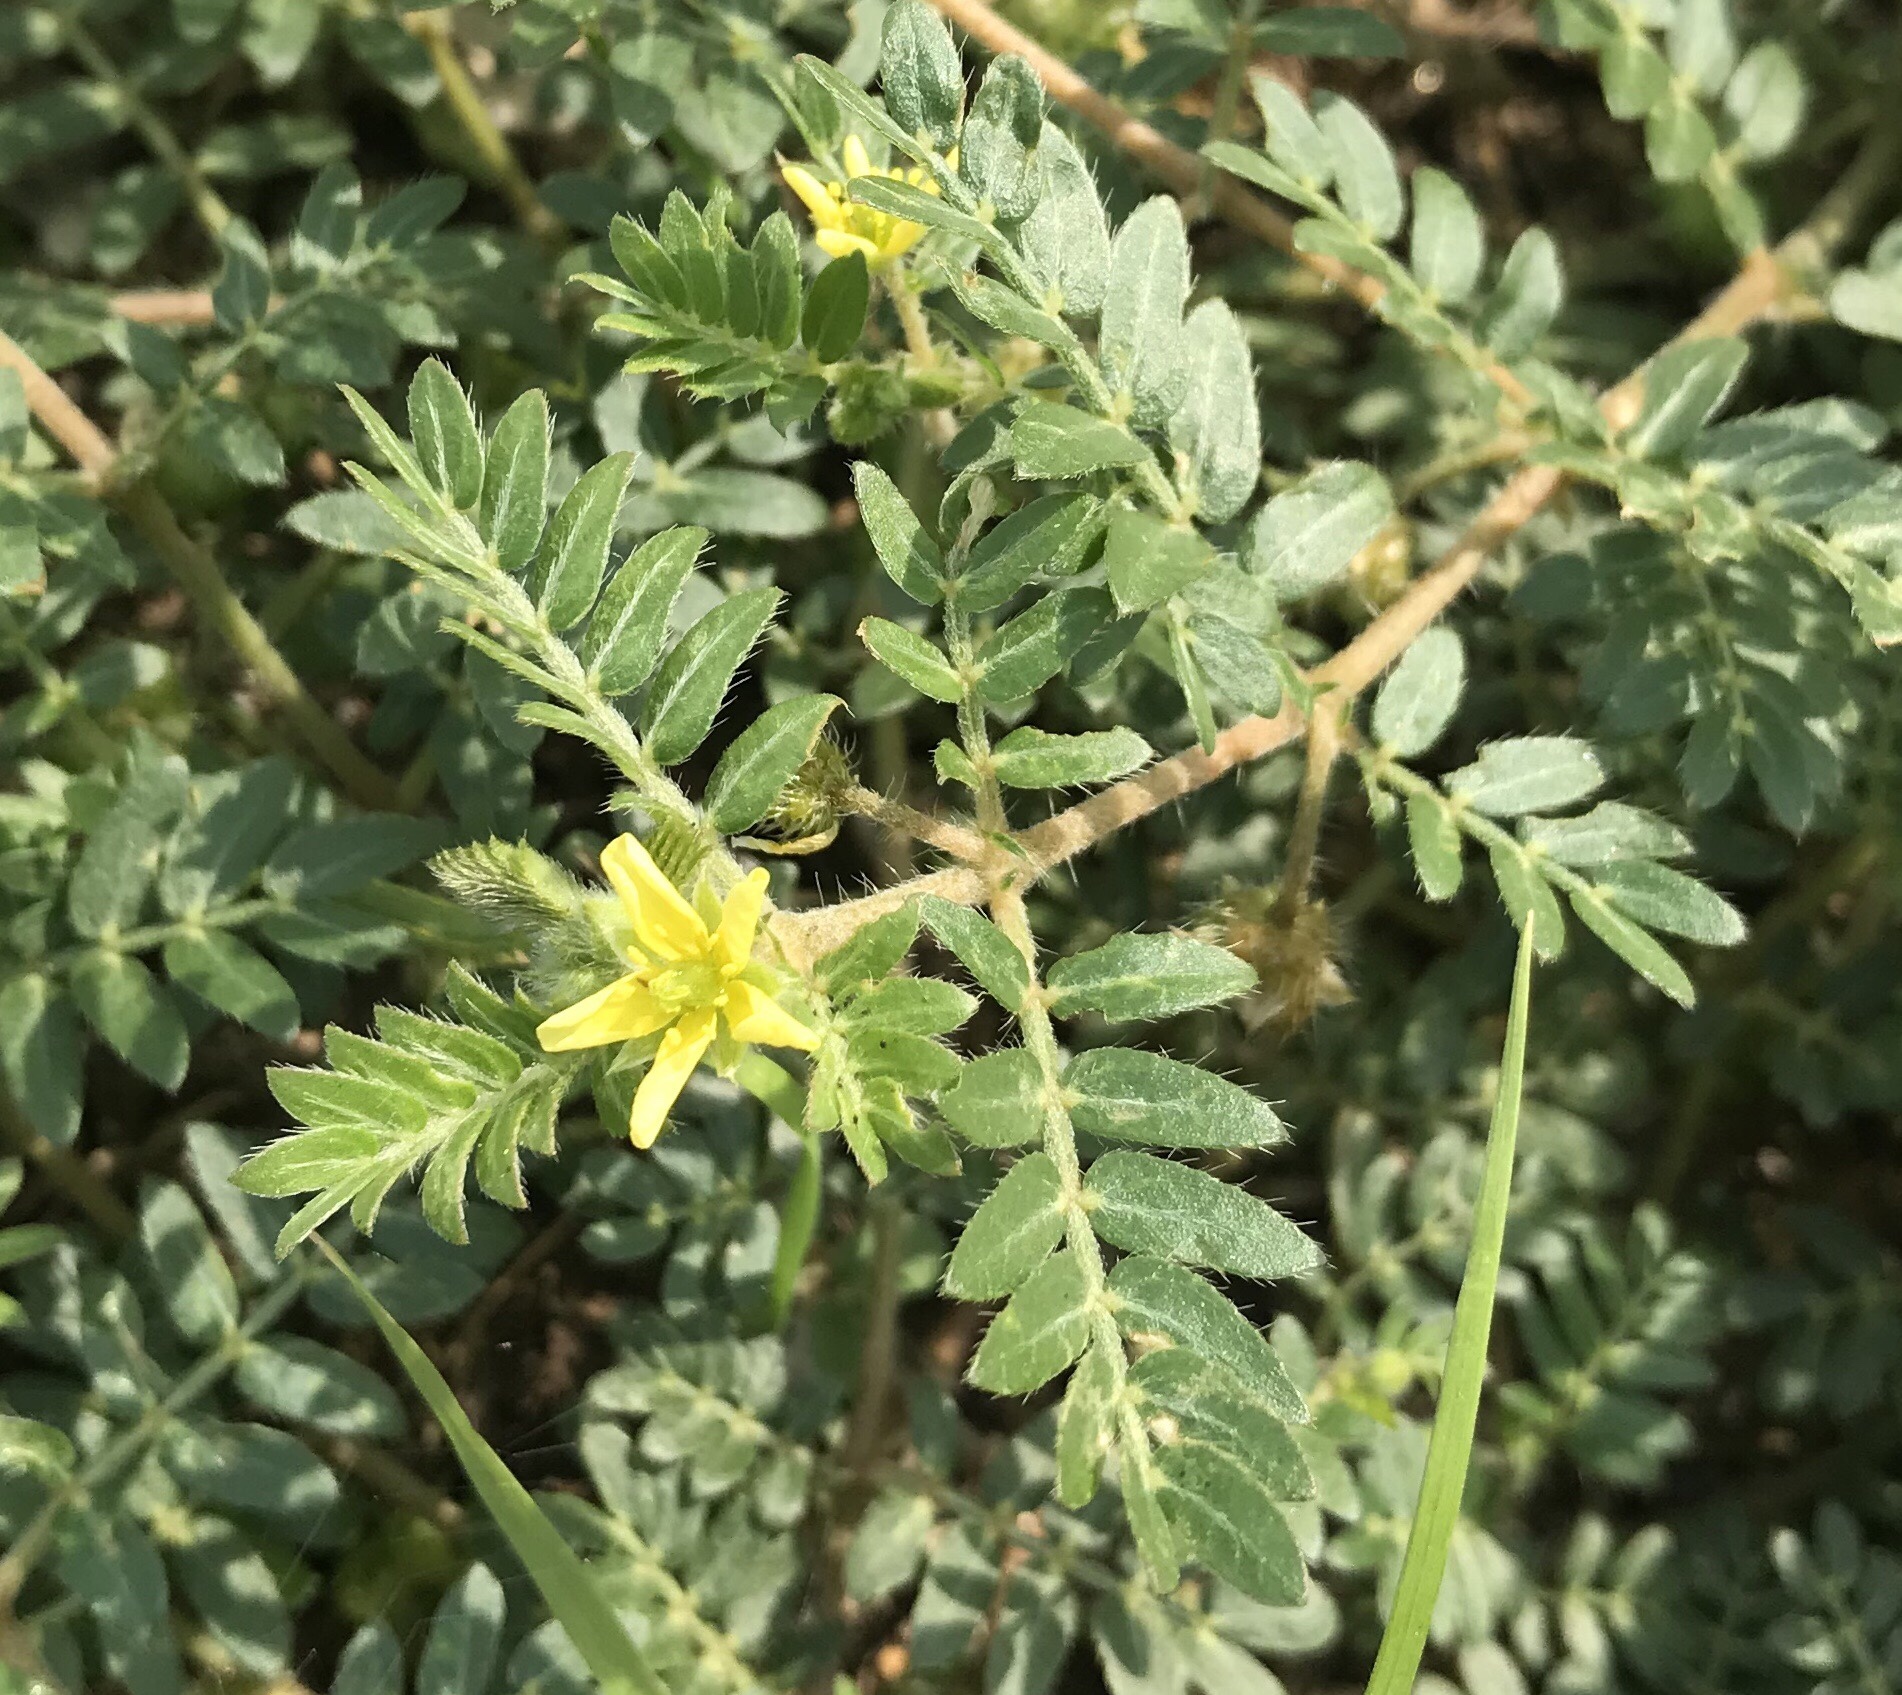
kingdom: Plantae
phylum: Tracheophyta
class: Magnoliopsida
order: Zygophyllales
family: Zygophyllaceae
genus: Tribulus
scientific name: Tribulus terrestris
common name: Puncturevine
